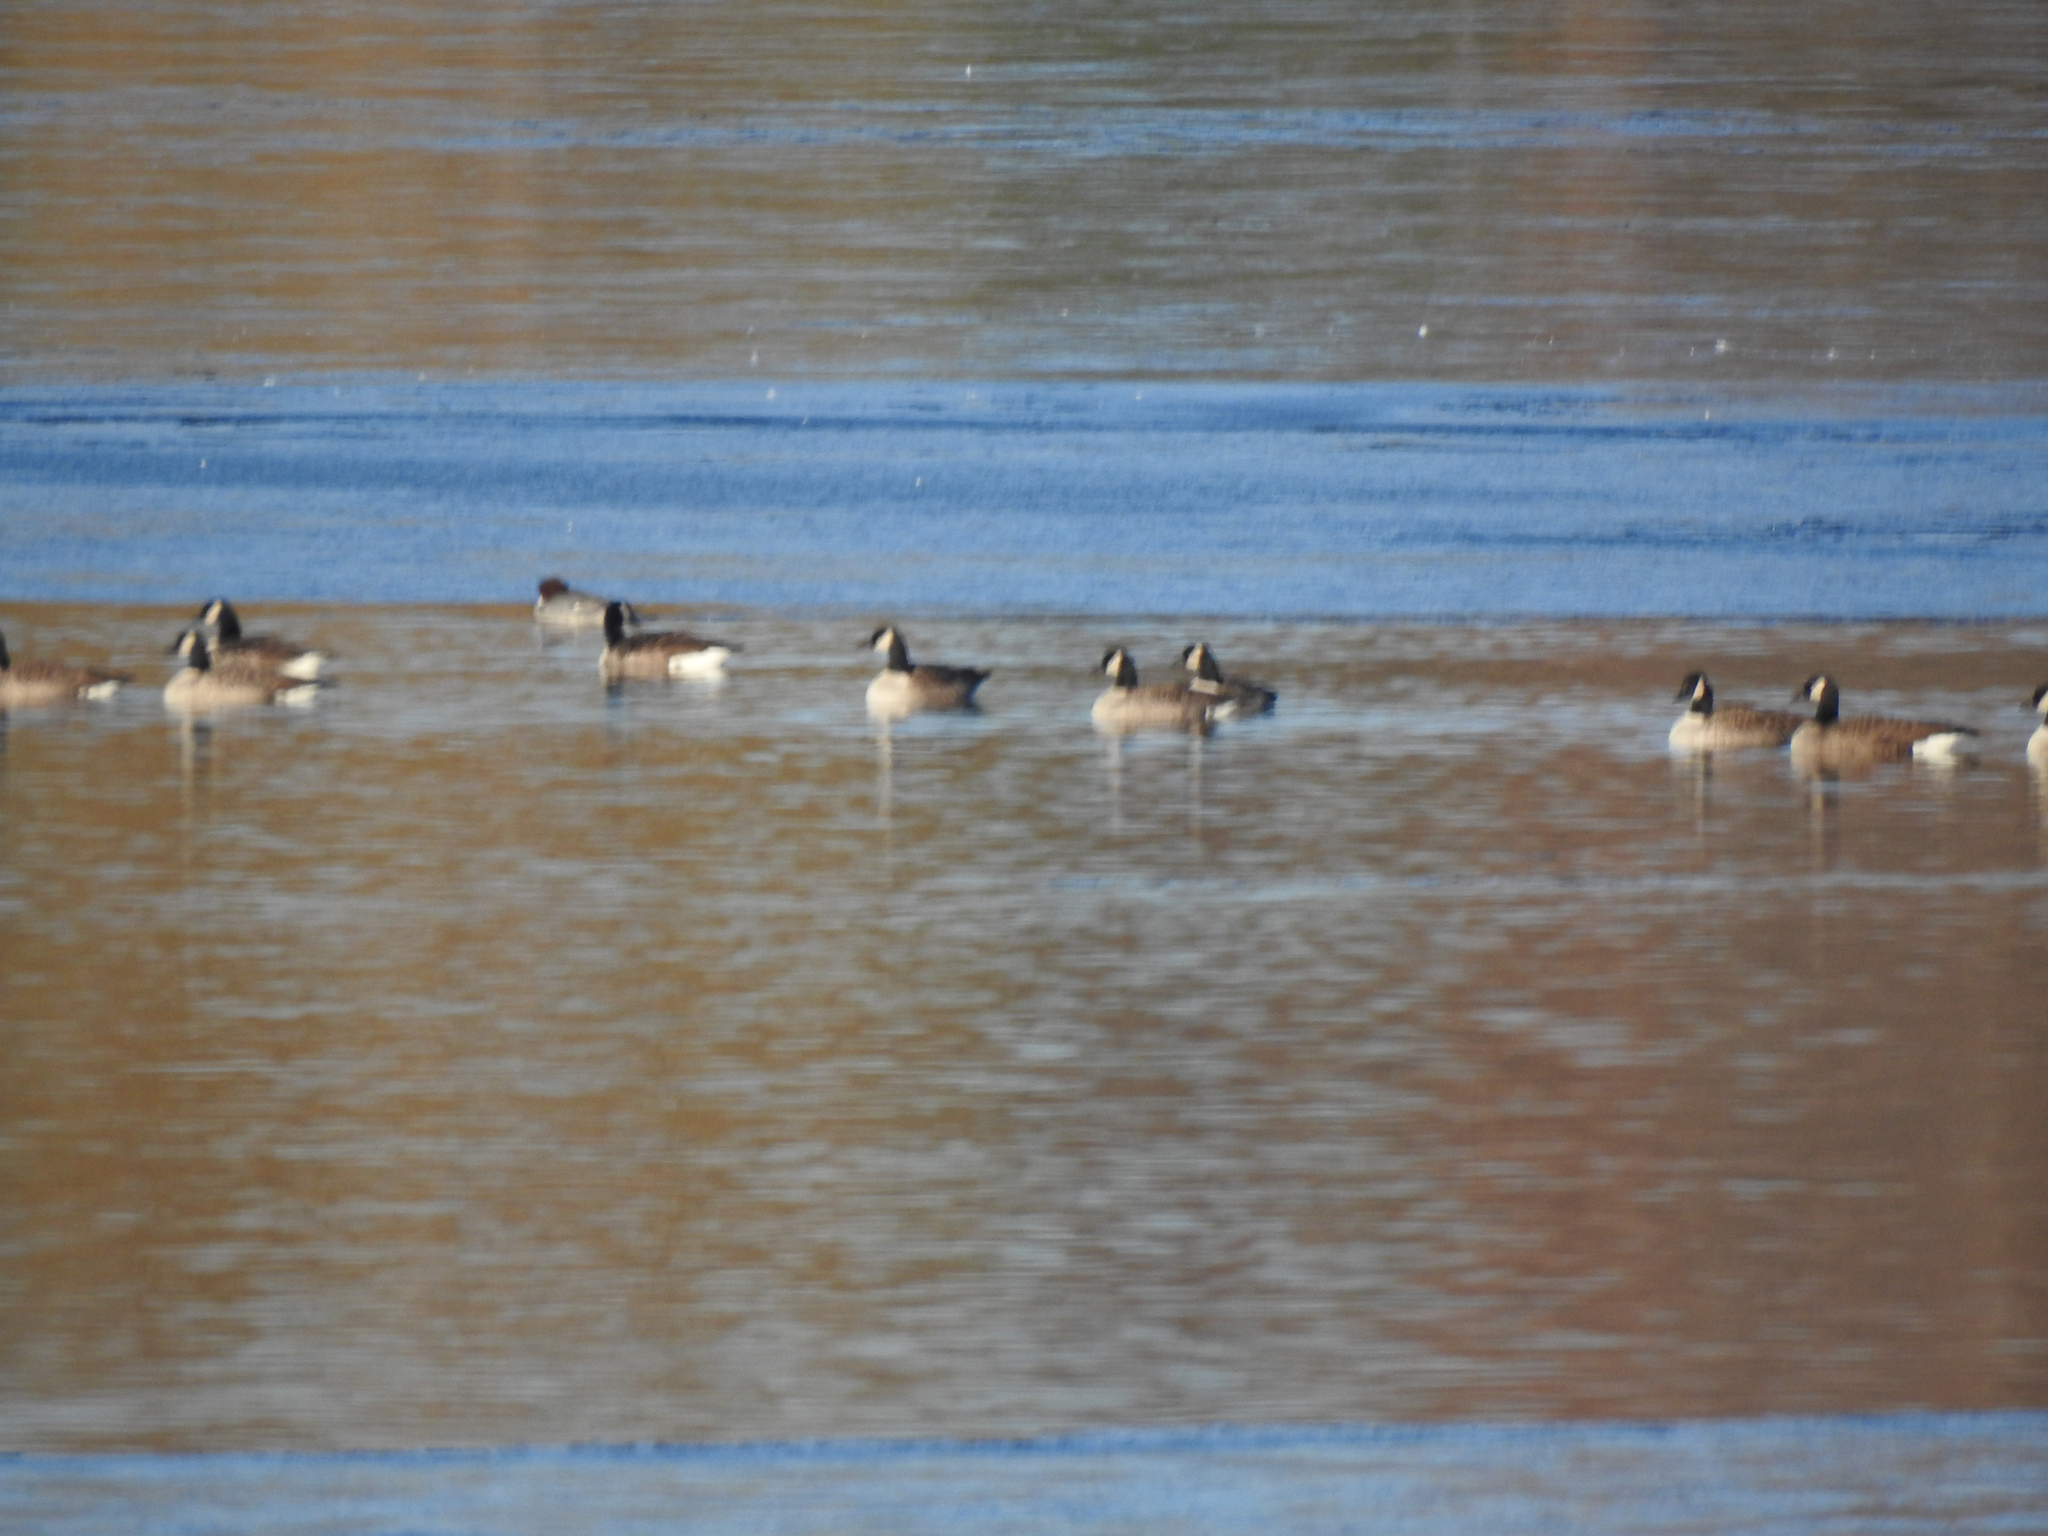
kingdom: Animalia
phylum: Chordata
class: Aves
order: Anseriformes
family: Anatidae
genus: Branta
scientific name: Branta canadensis
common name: Canada goose
